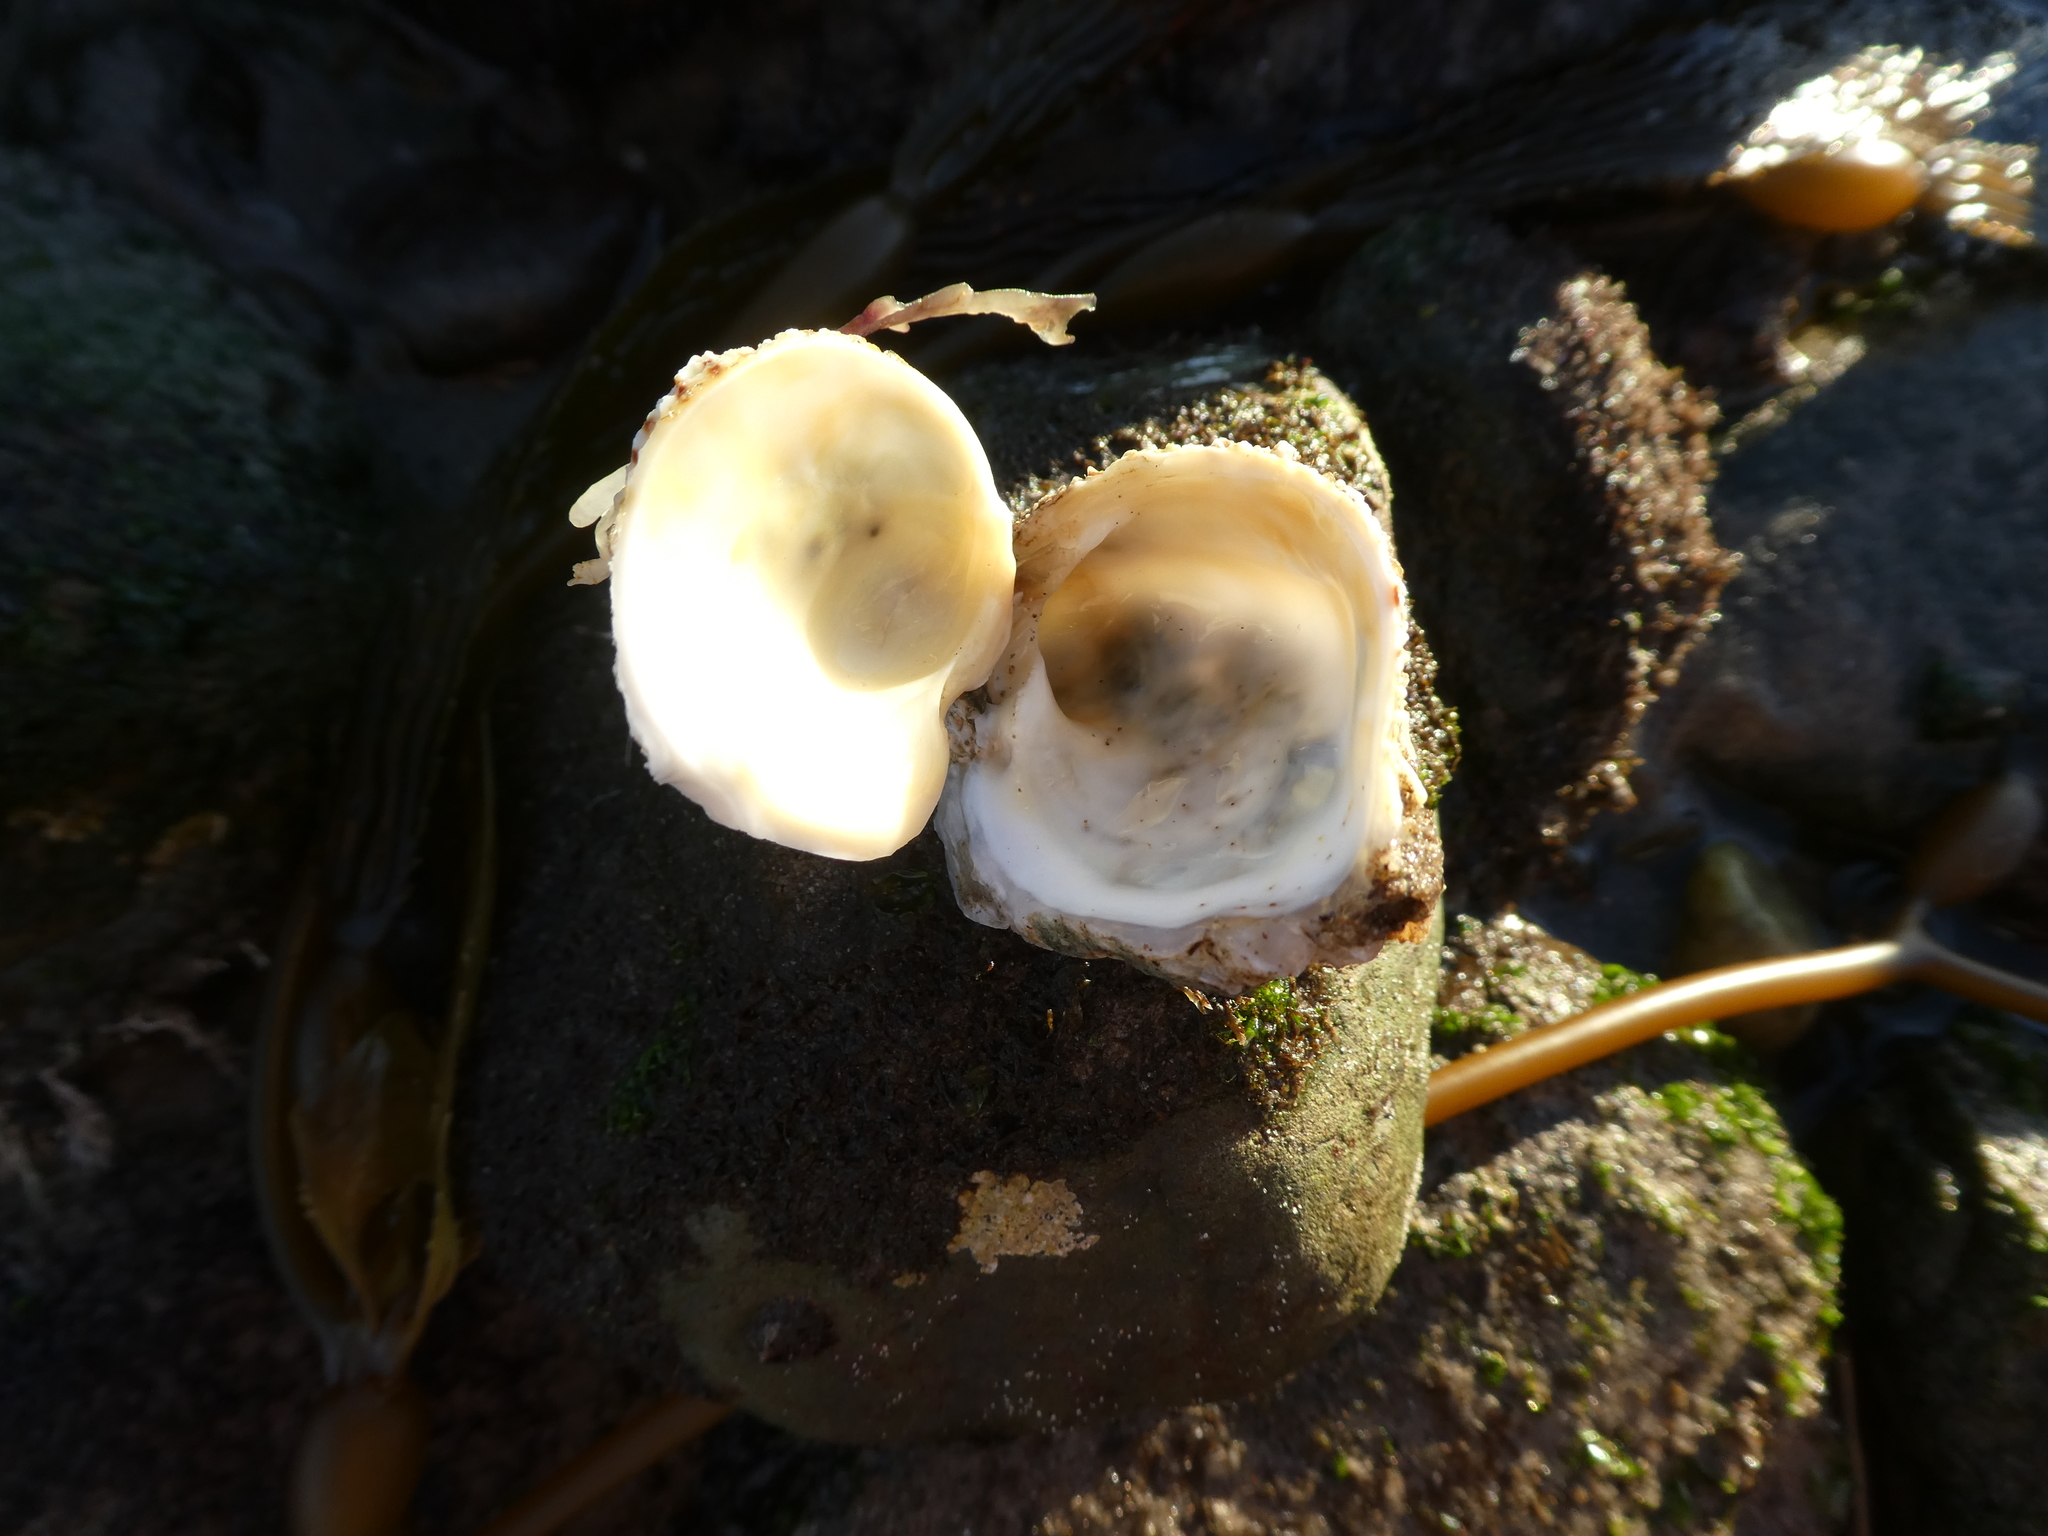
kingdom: Animalia
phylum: Mollusca
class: Bivalvia
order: Venerida
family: Chamidae
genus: Pseudochama
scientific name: Pseudochama exogyra
